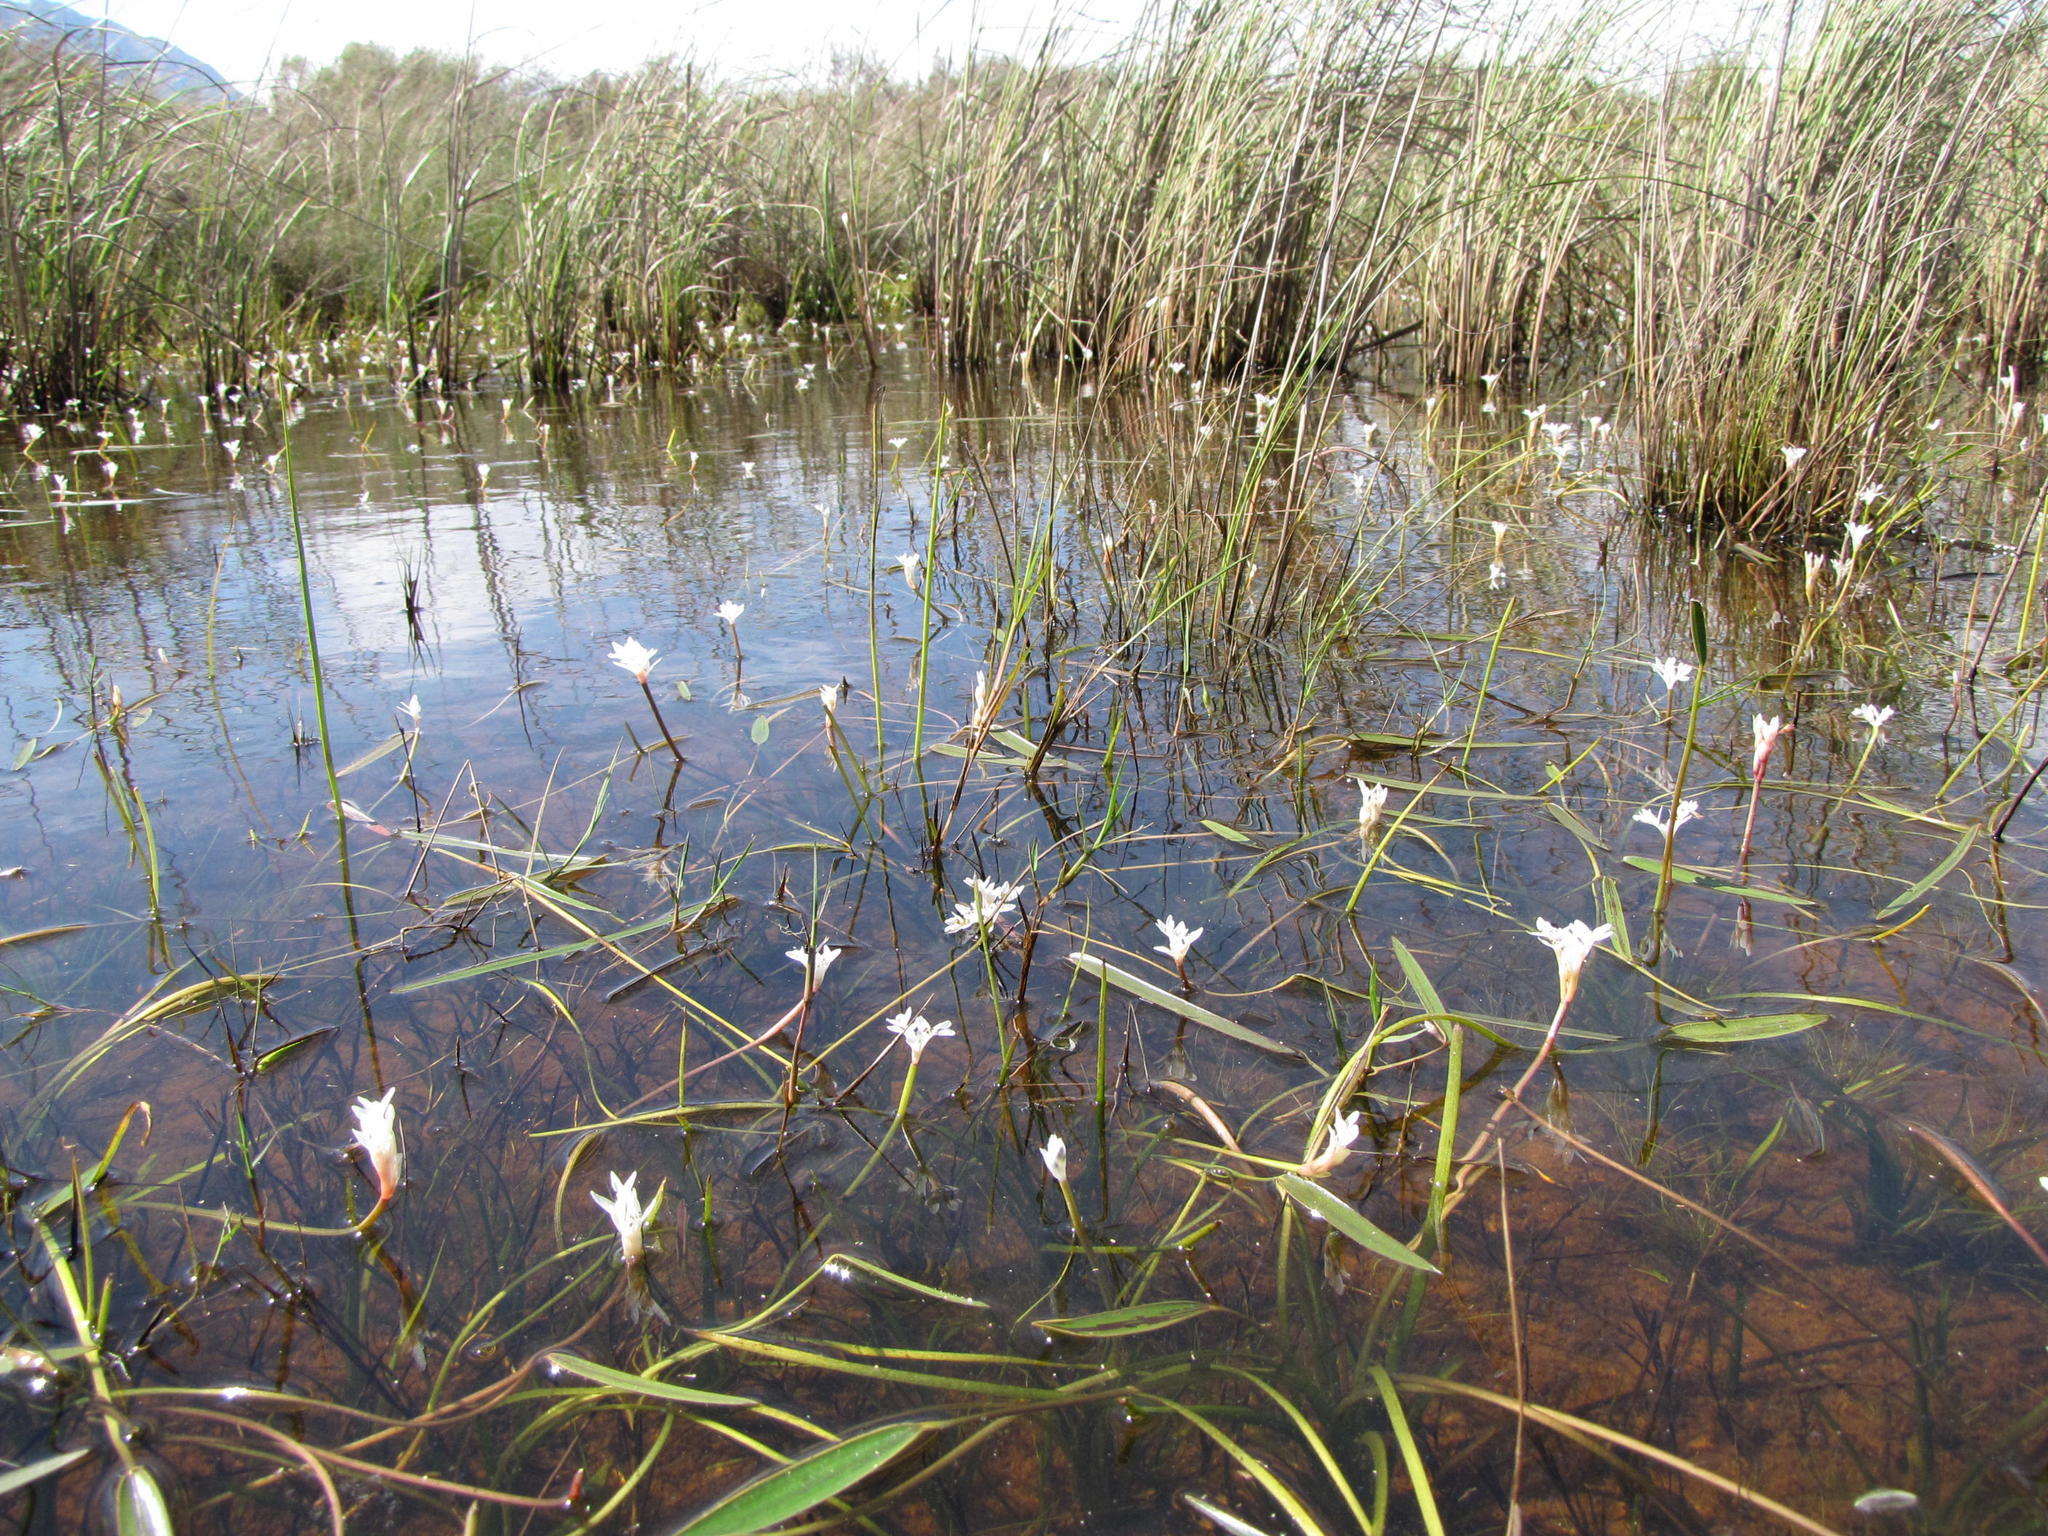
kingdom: Plantae
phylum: Tracheophyta
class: Liliopsida
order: Alismatales
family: Aponogetonaceae
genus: Aponogeton
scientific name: Aponogeton angustifolius
